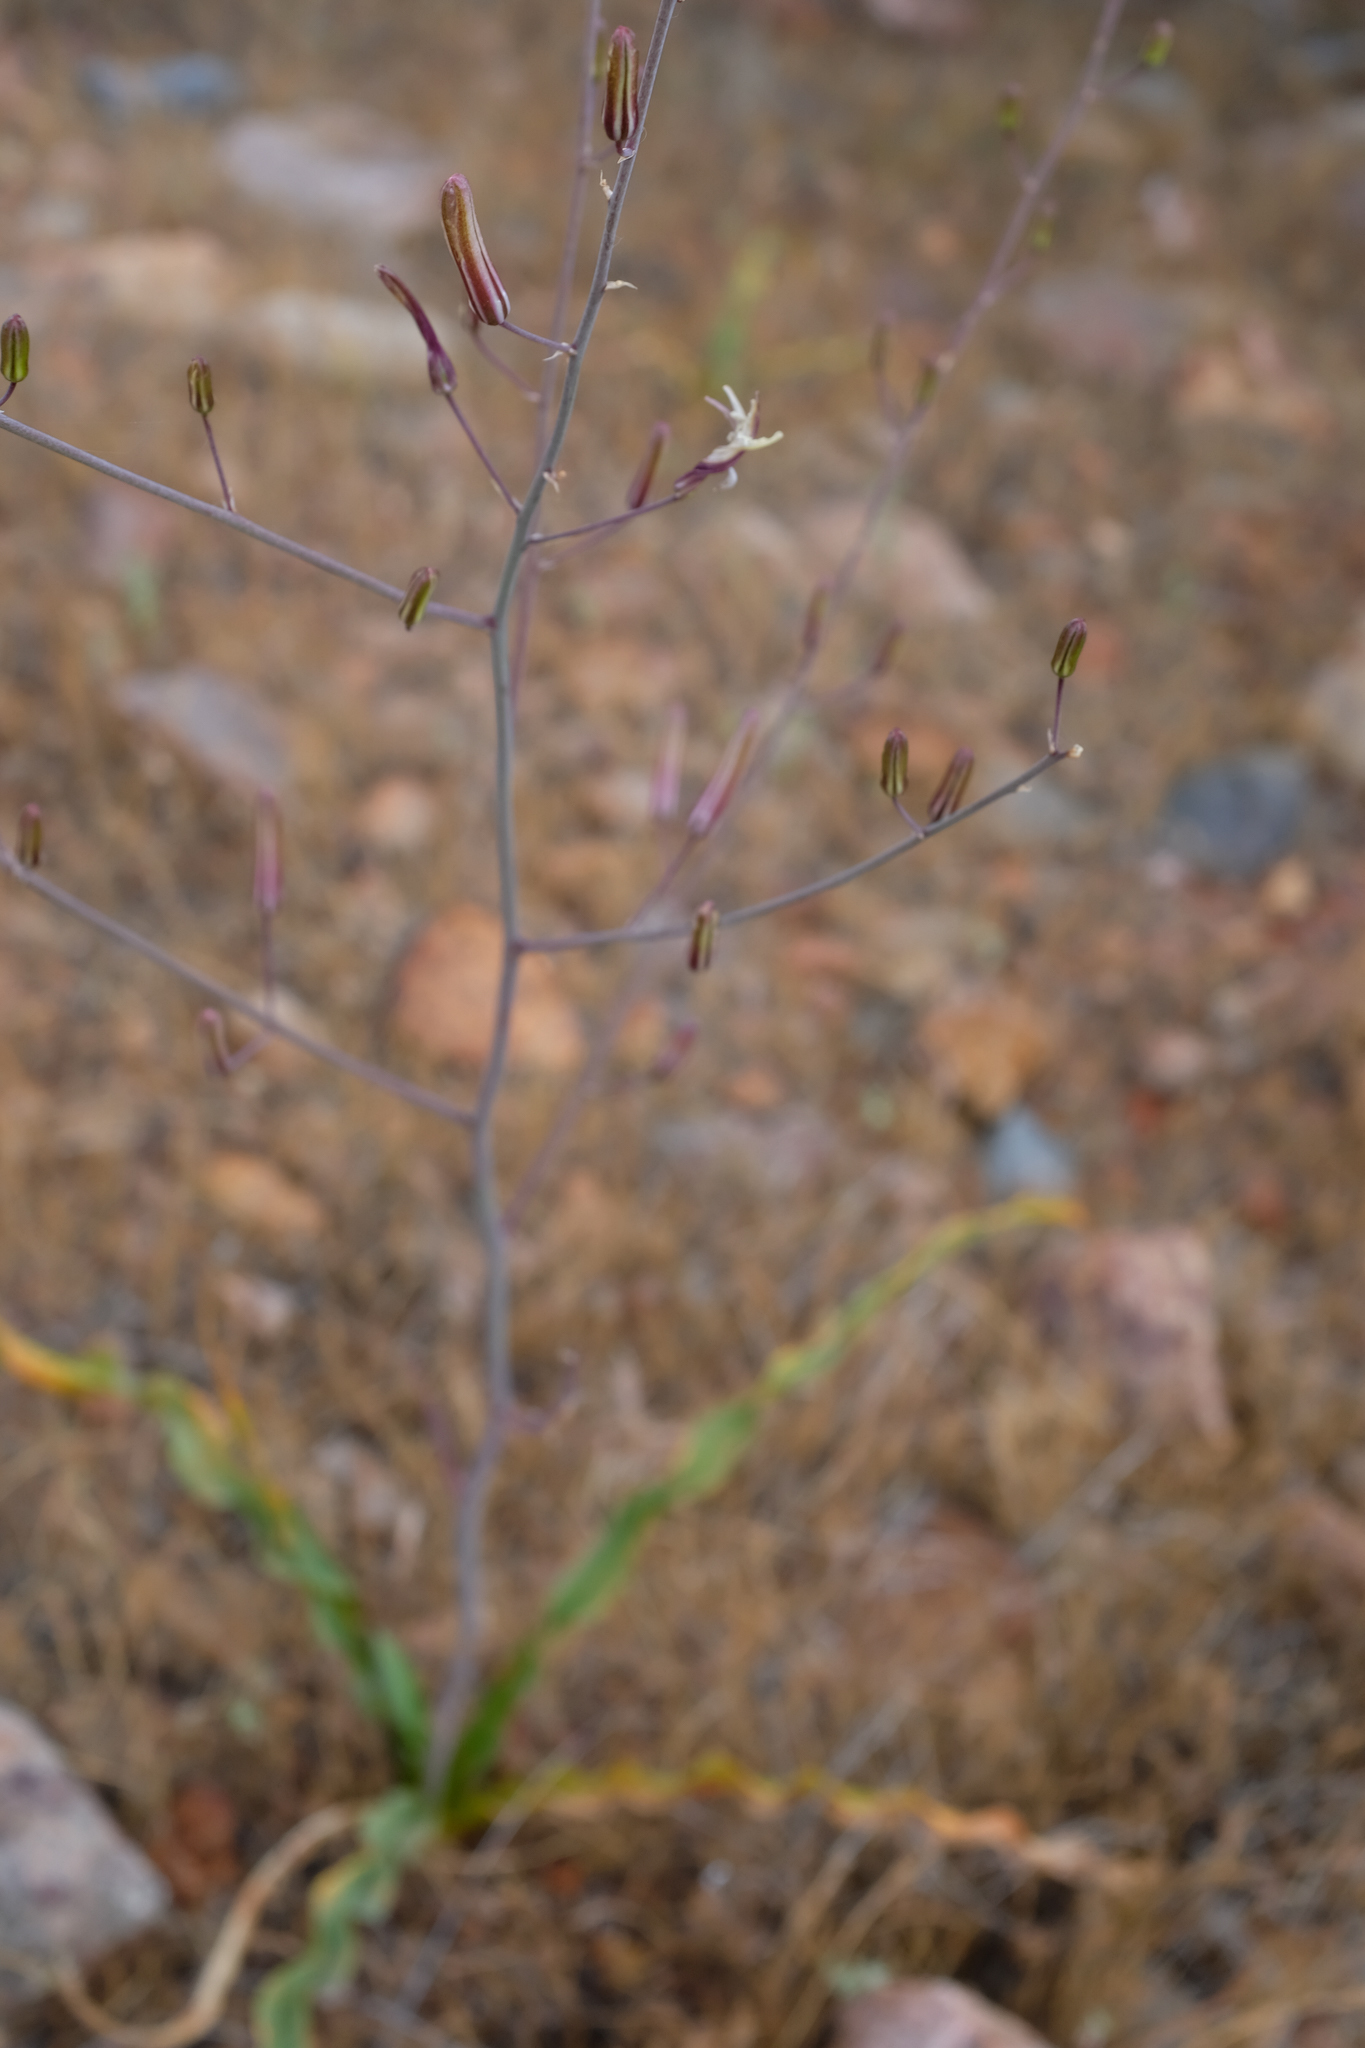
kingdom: Plantae
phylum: Tracheophyta
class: Liliopsida
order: Asparagales
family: Asparagaceae
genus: Chlorogalum
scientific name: Chlorogalum pomeridianum
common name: Amole
